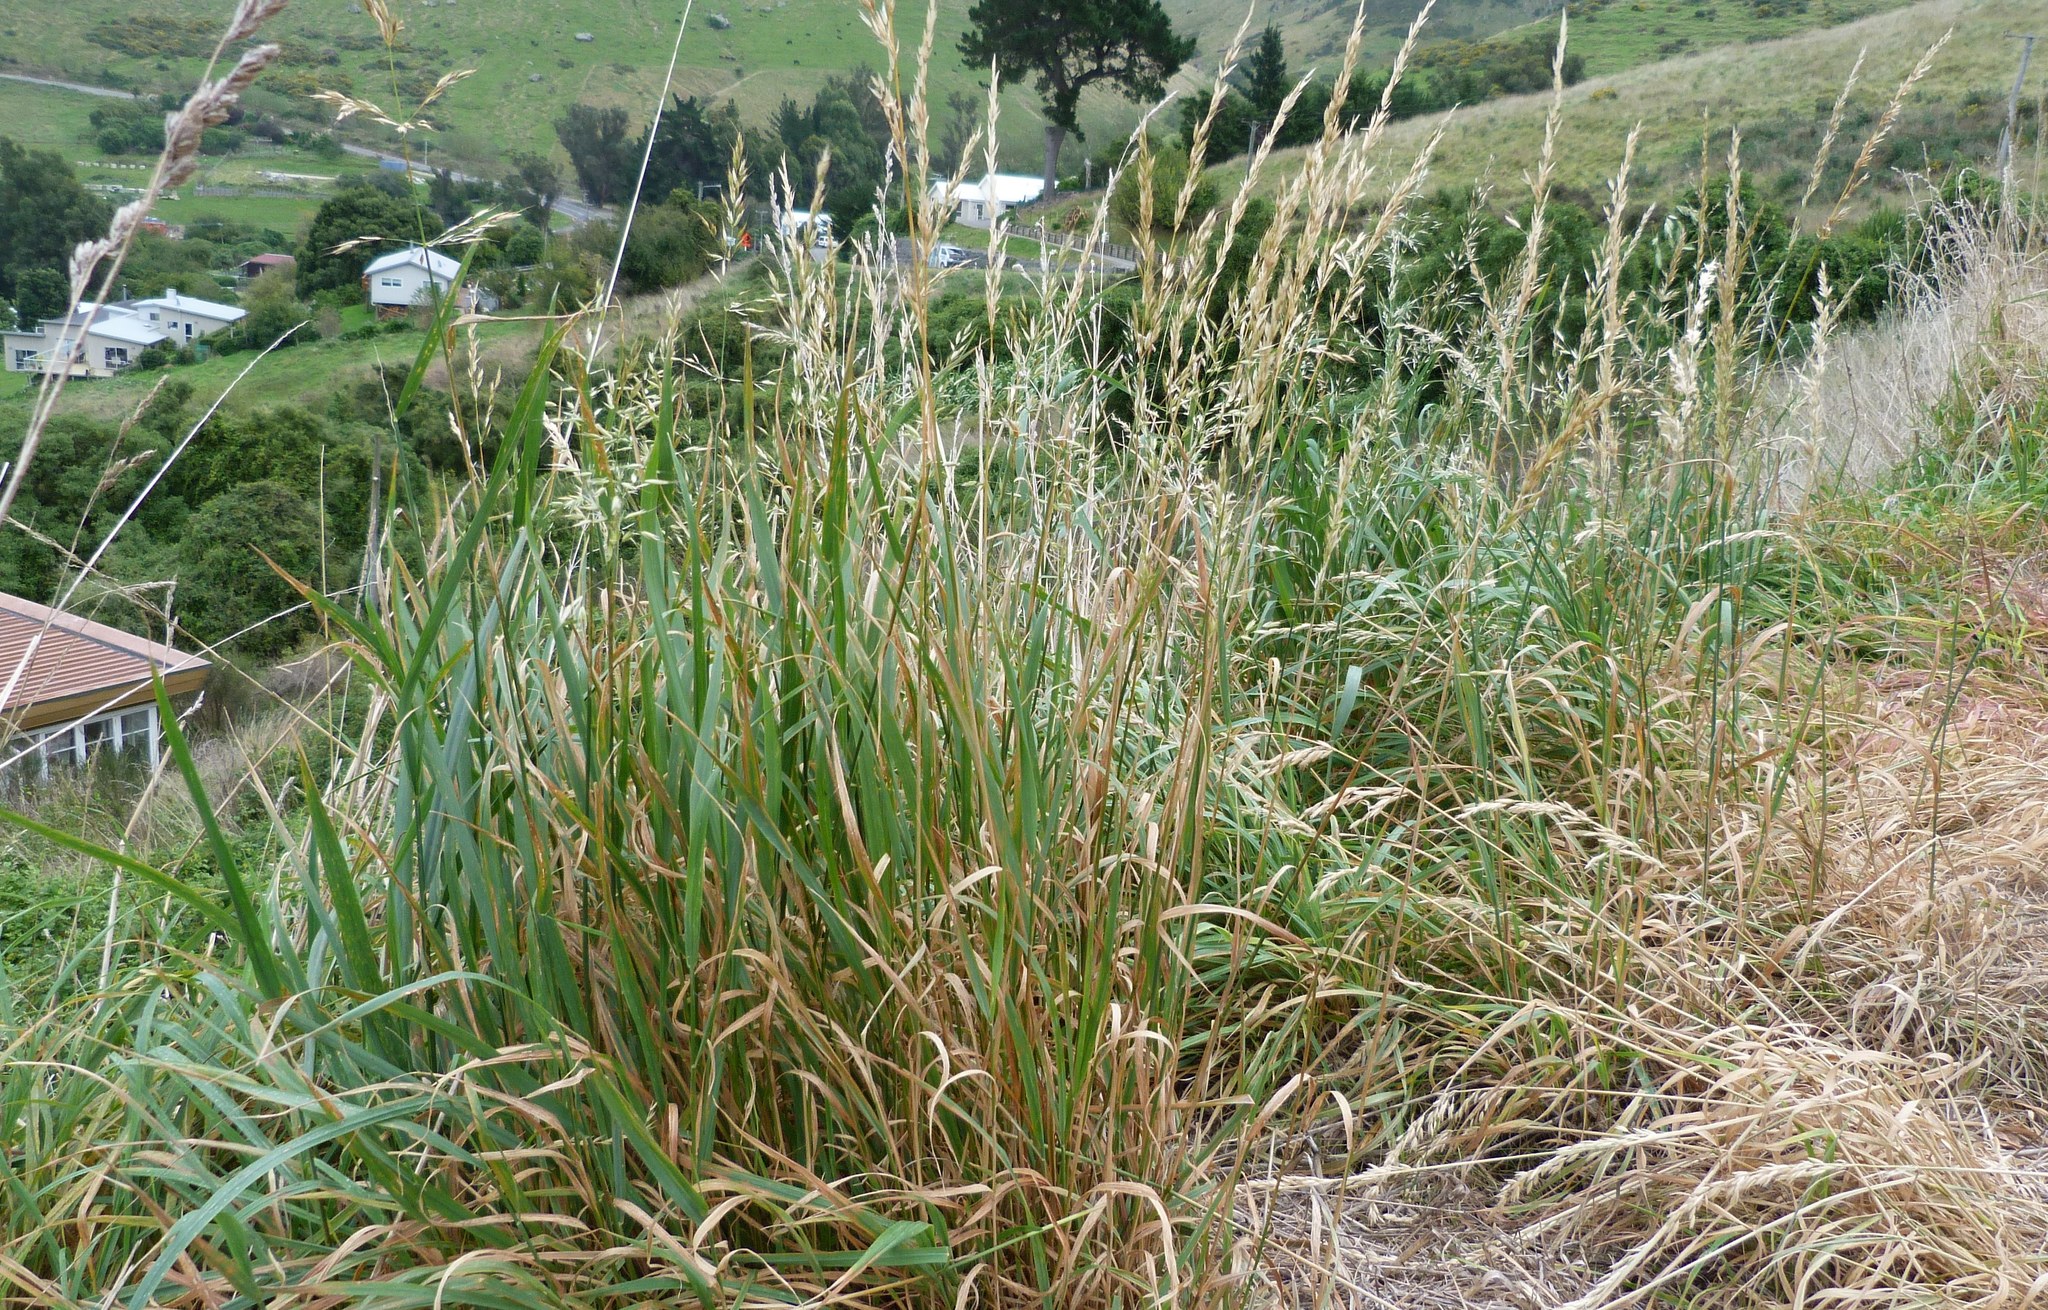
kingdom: Plantae
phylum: Tracheophyta
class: Liliopsida
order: Poales
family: Poaceae
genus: Arrhenatherum
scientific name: Arrhenatherum elatius
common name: Tall oatgrass
